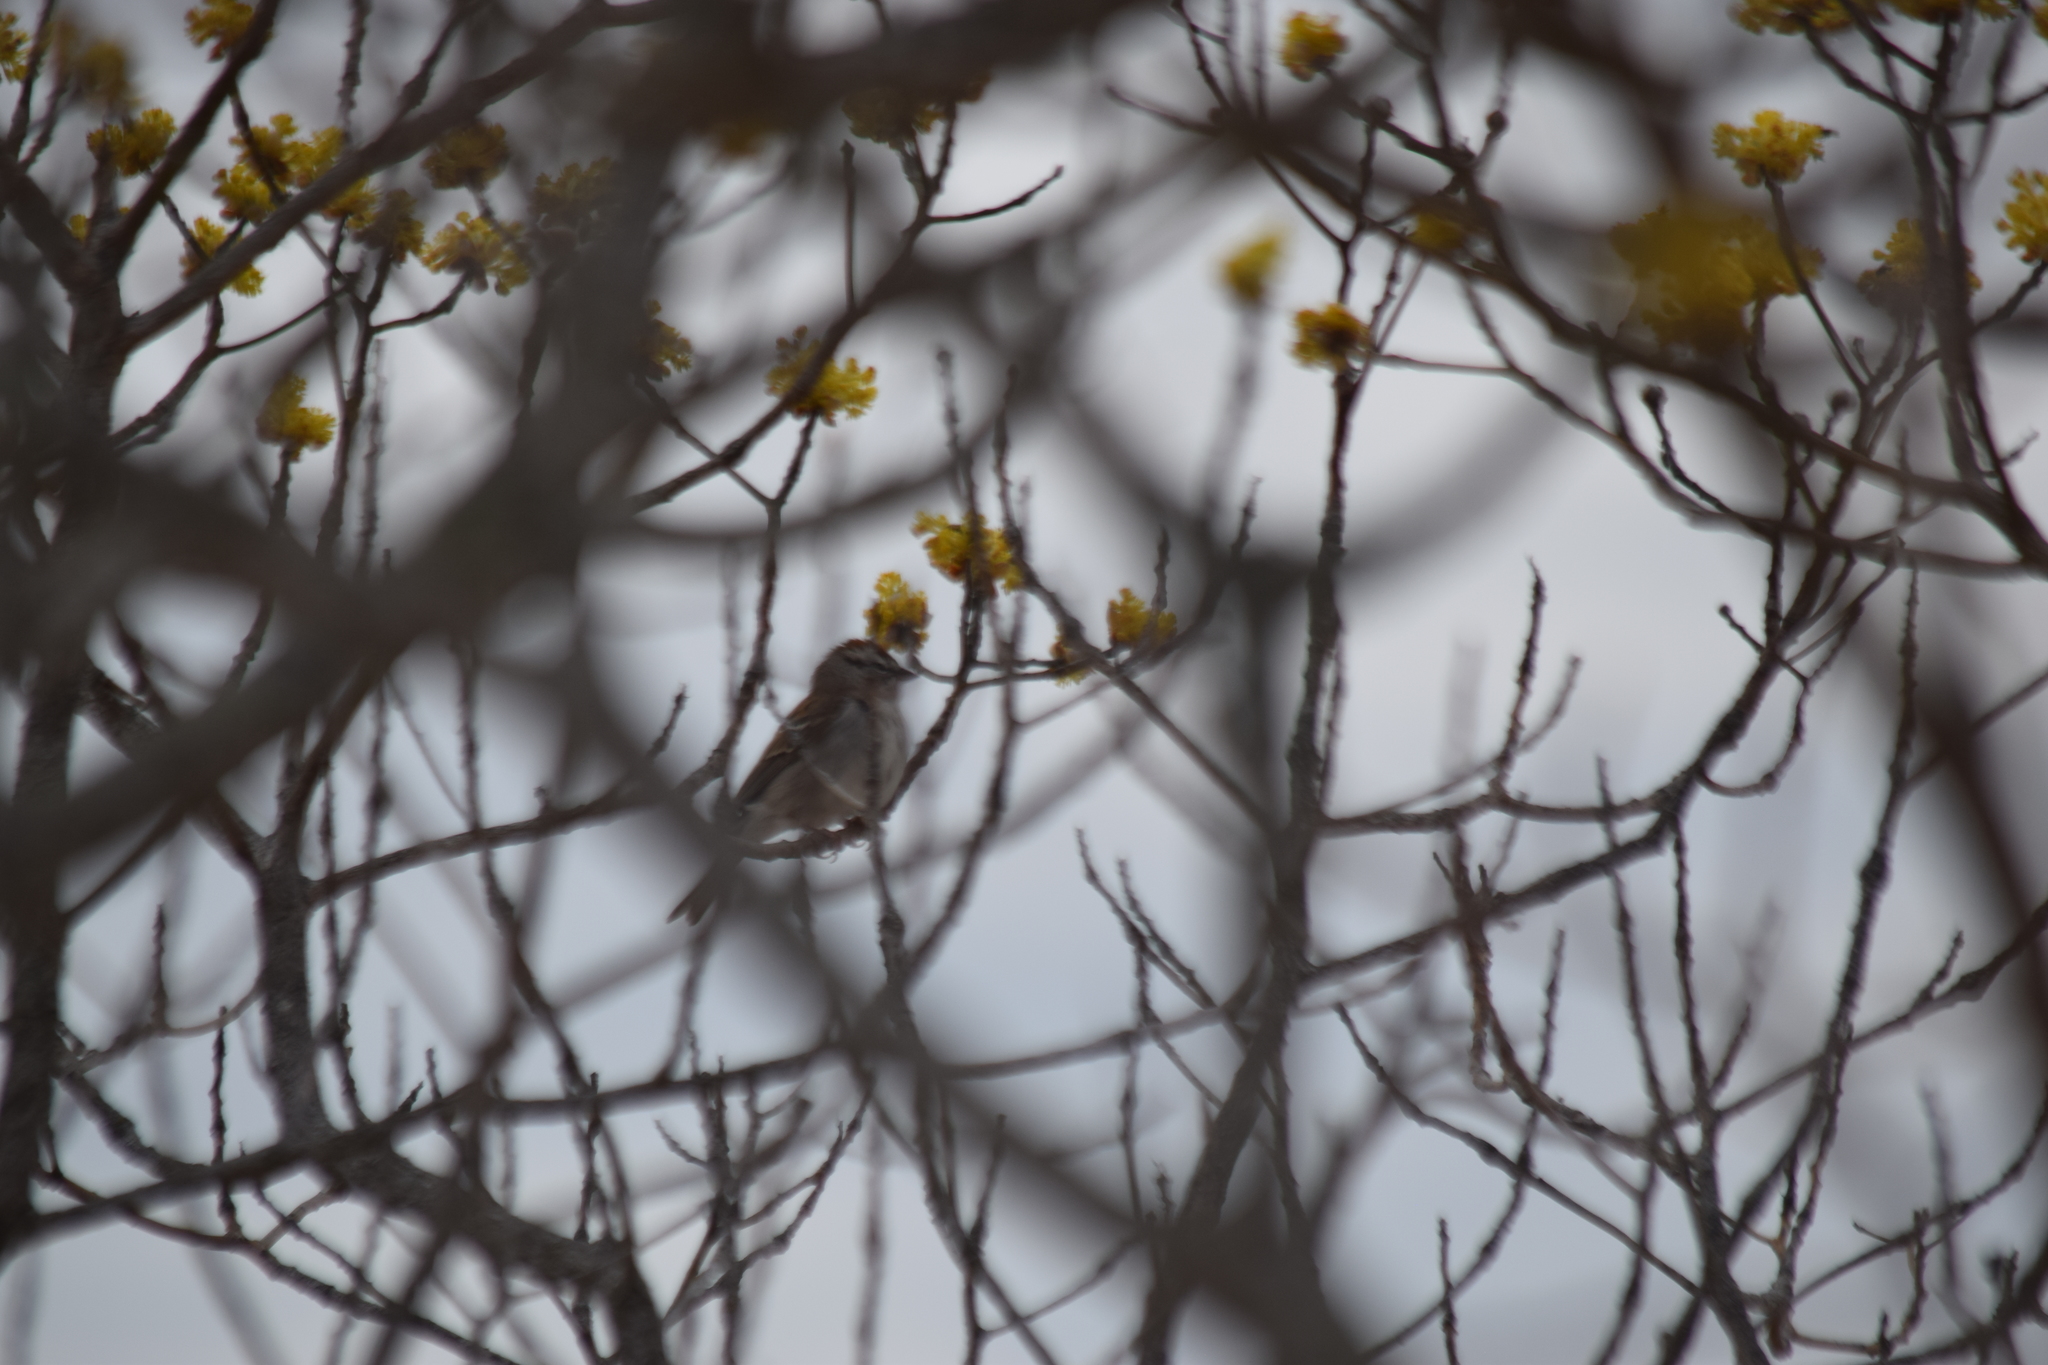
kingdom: Animalia
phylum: Chordata
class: Aves
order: Passeriformes
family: Passerellidae
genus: Spizella
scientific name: Spizella passerina
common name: Chipping sparrow
